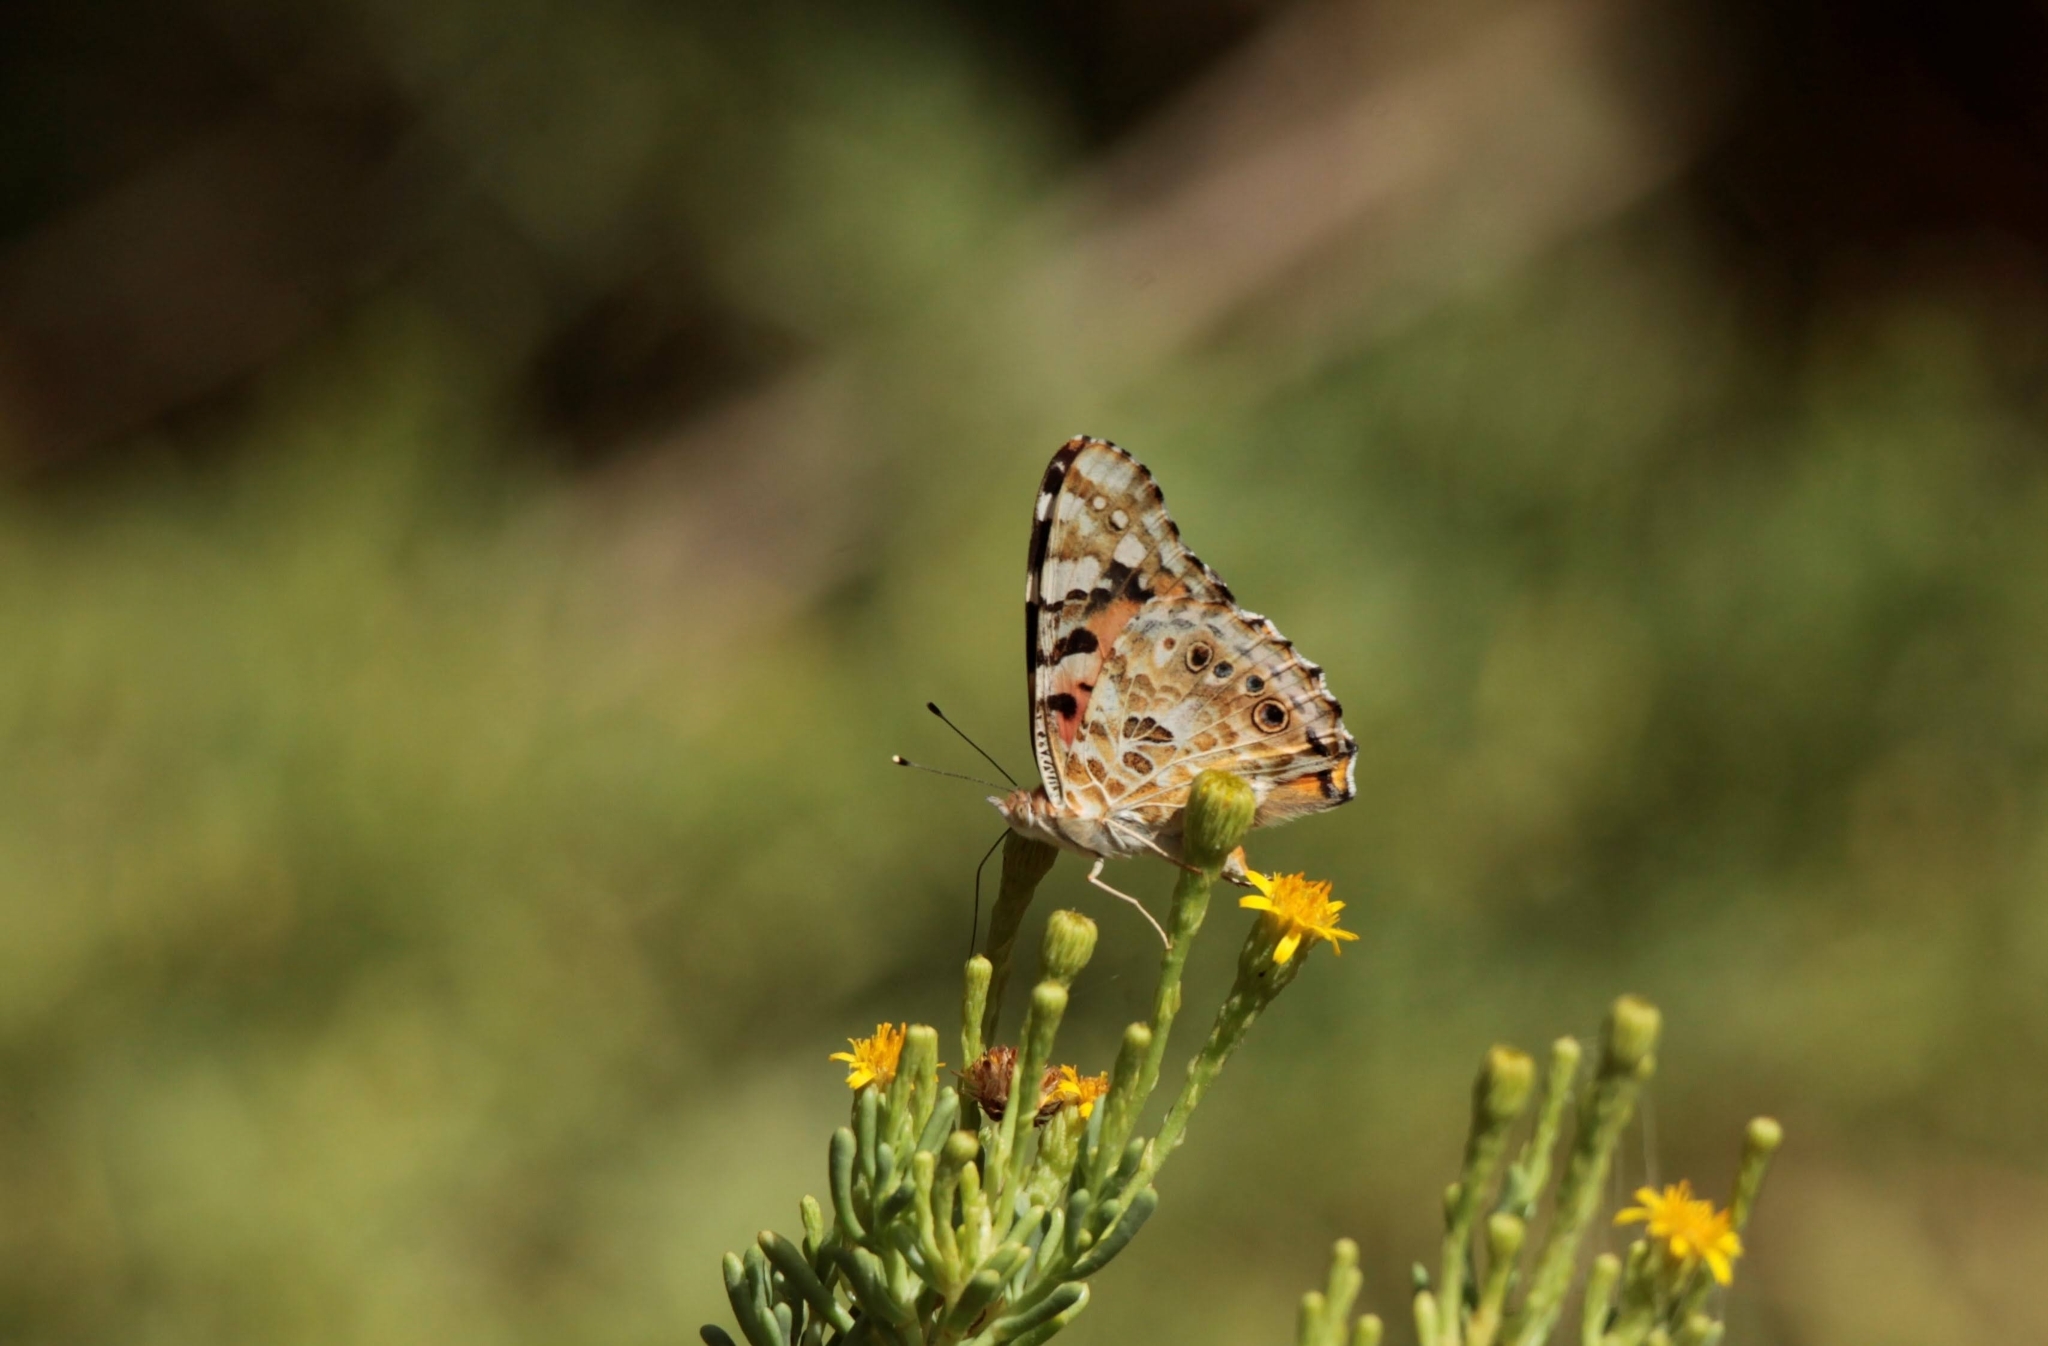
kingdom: Animalia
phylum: Arthropoda
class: Insecta
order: Lepidoptera
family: Nymphalidae
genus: Vanessa
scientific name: Vanessa cardui
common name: Painted lady
